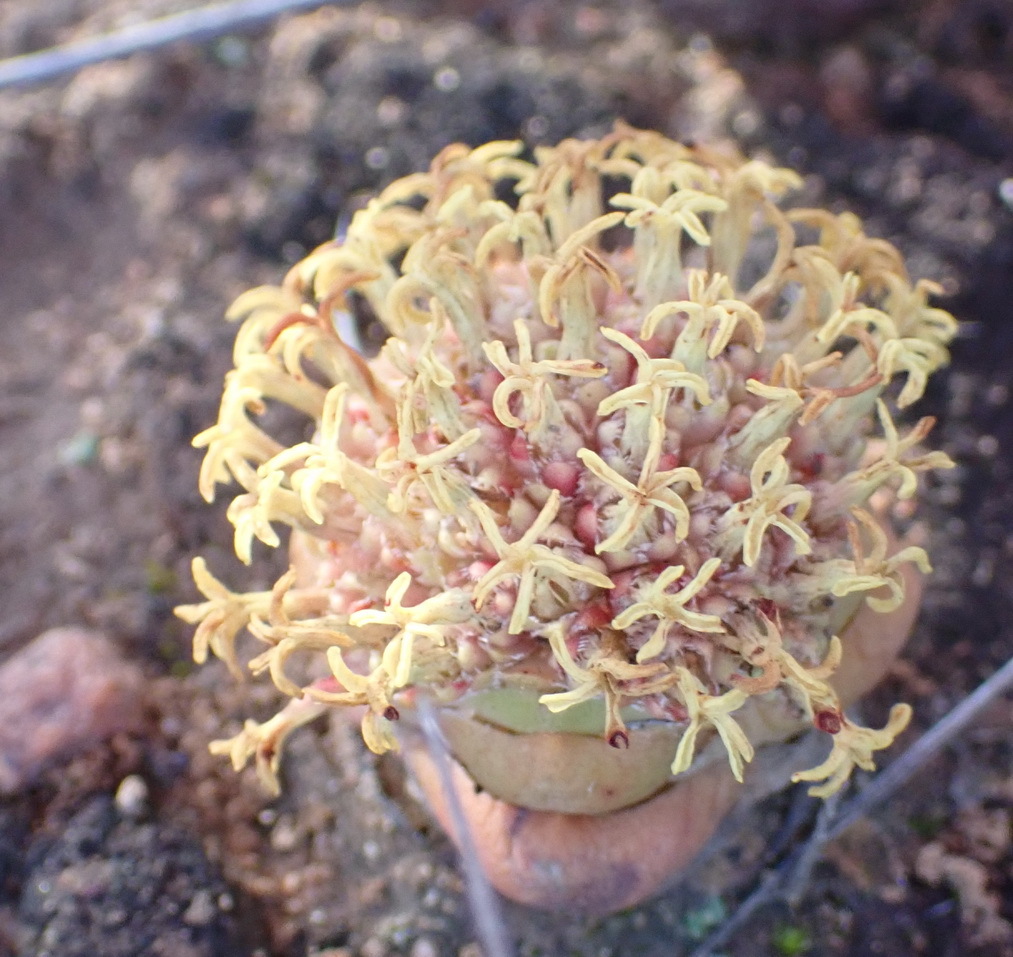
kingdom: Plantae
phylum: Tracheophyta
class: Magnoliopsida
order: Saxifragales
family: Crassulaceae
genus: Crassula
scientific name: Crassula columnaris
